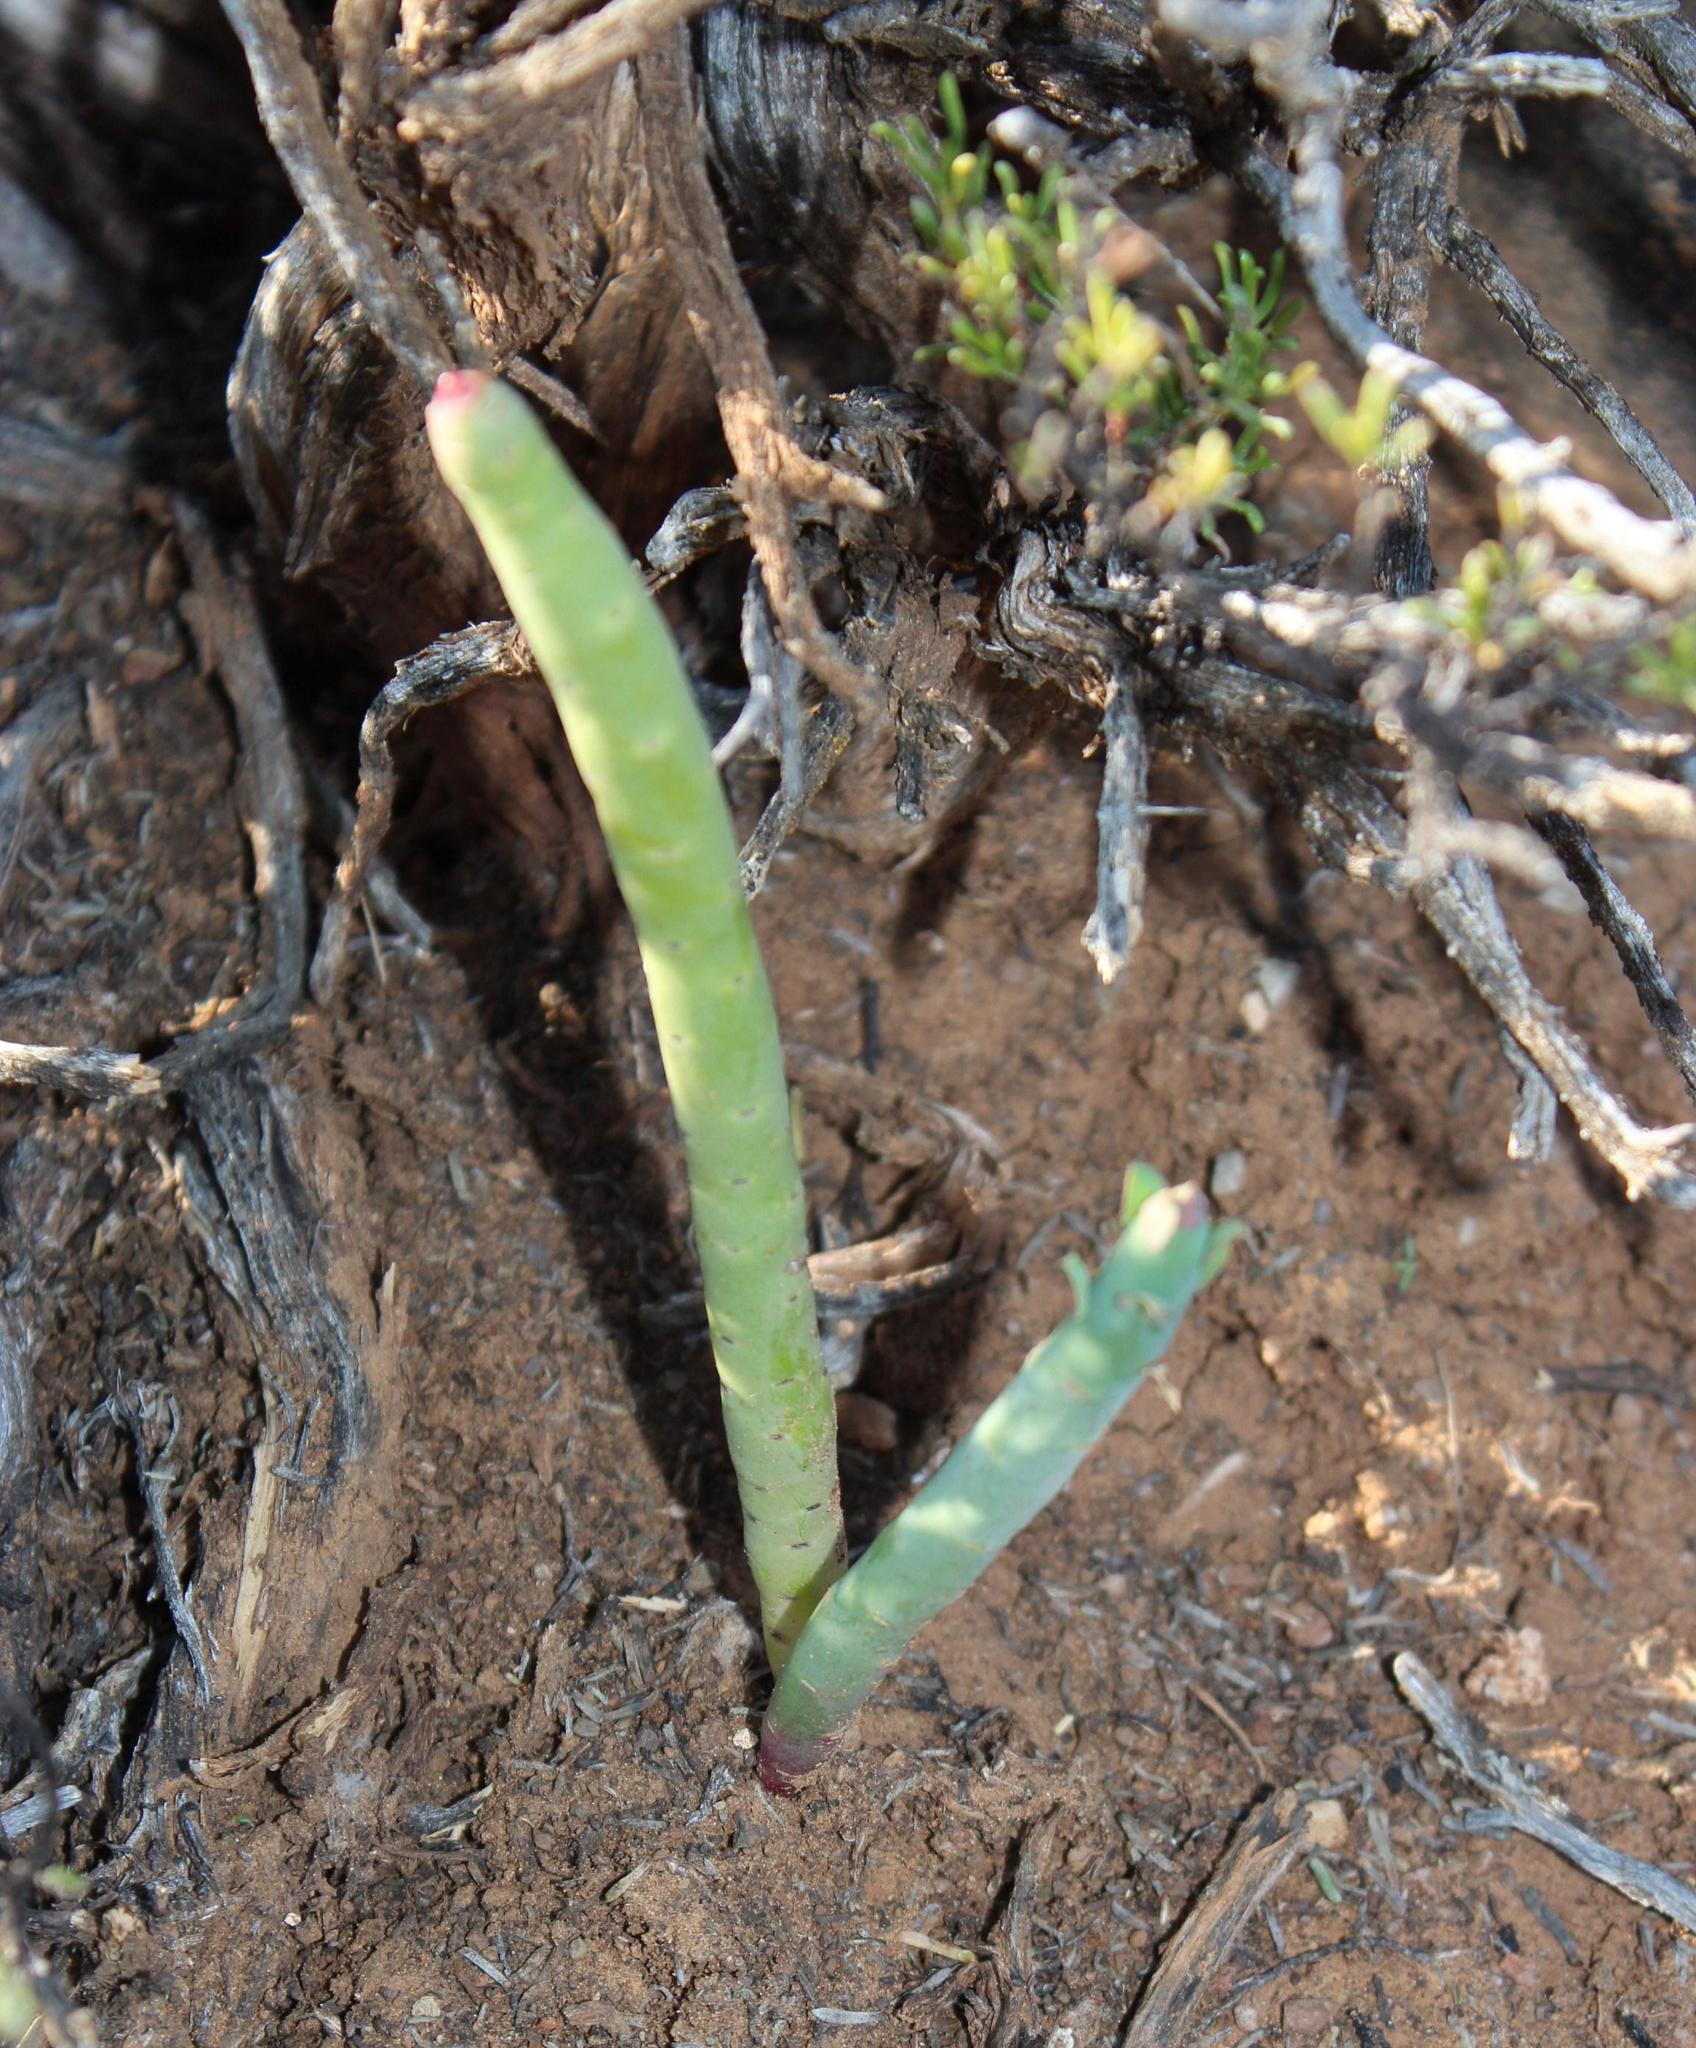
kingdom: Plantae
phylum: Tracheophyta
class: Magnoliopsida
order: Malpighiales
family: Euphorbiaceae
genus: Euphorbia
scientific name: Euphorbia stolonifera
